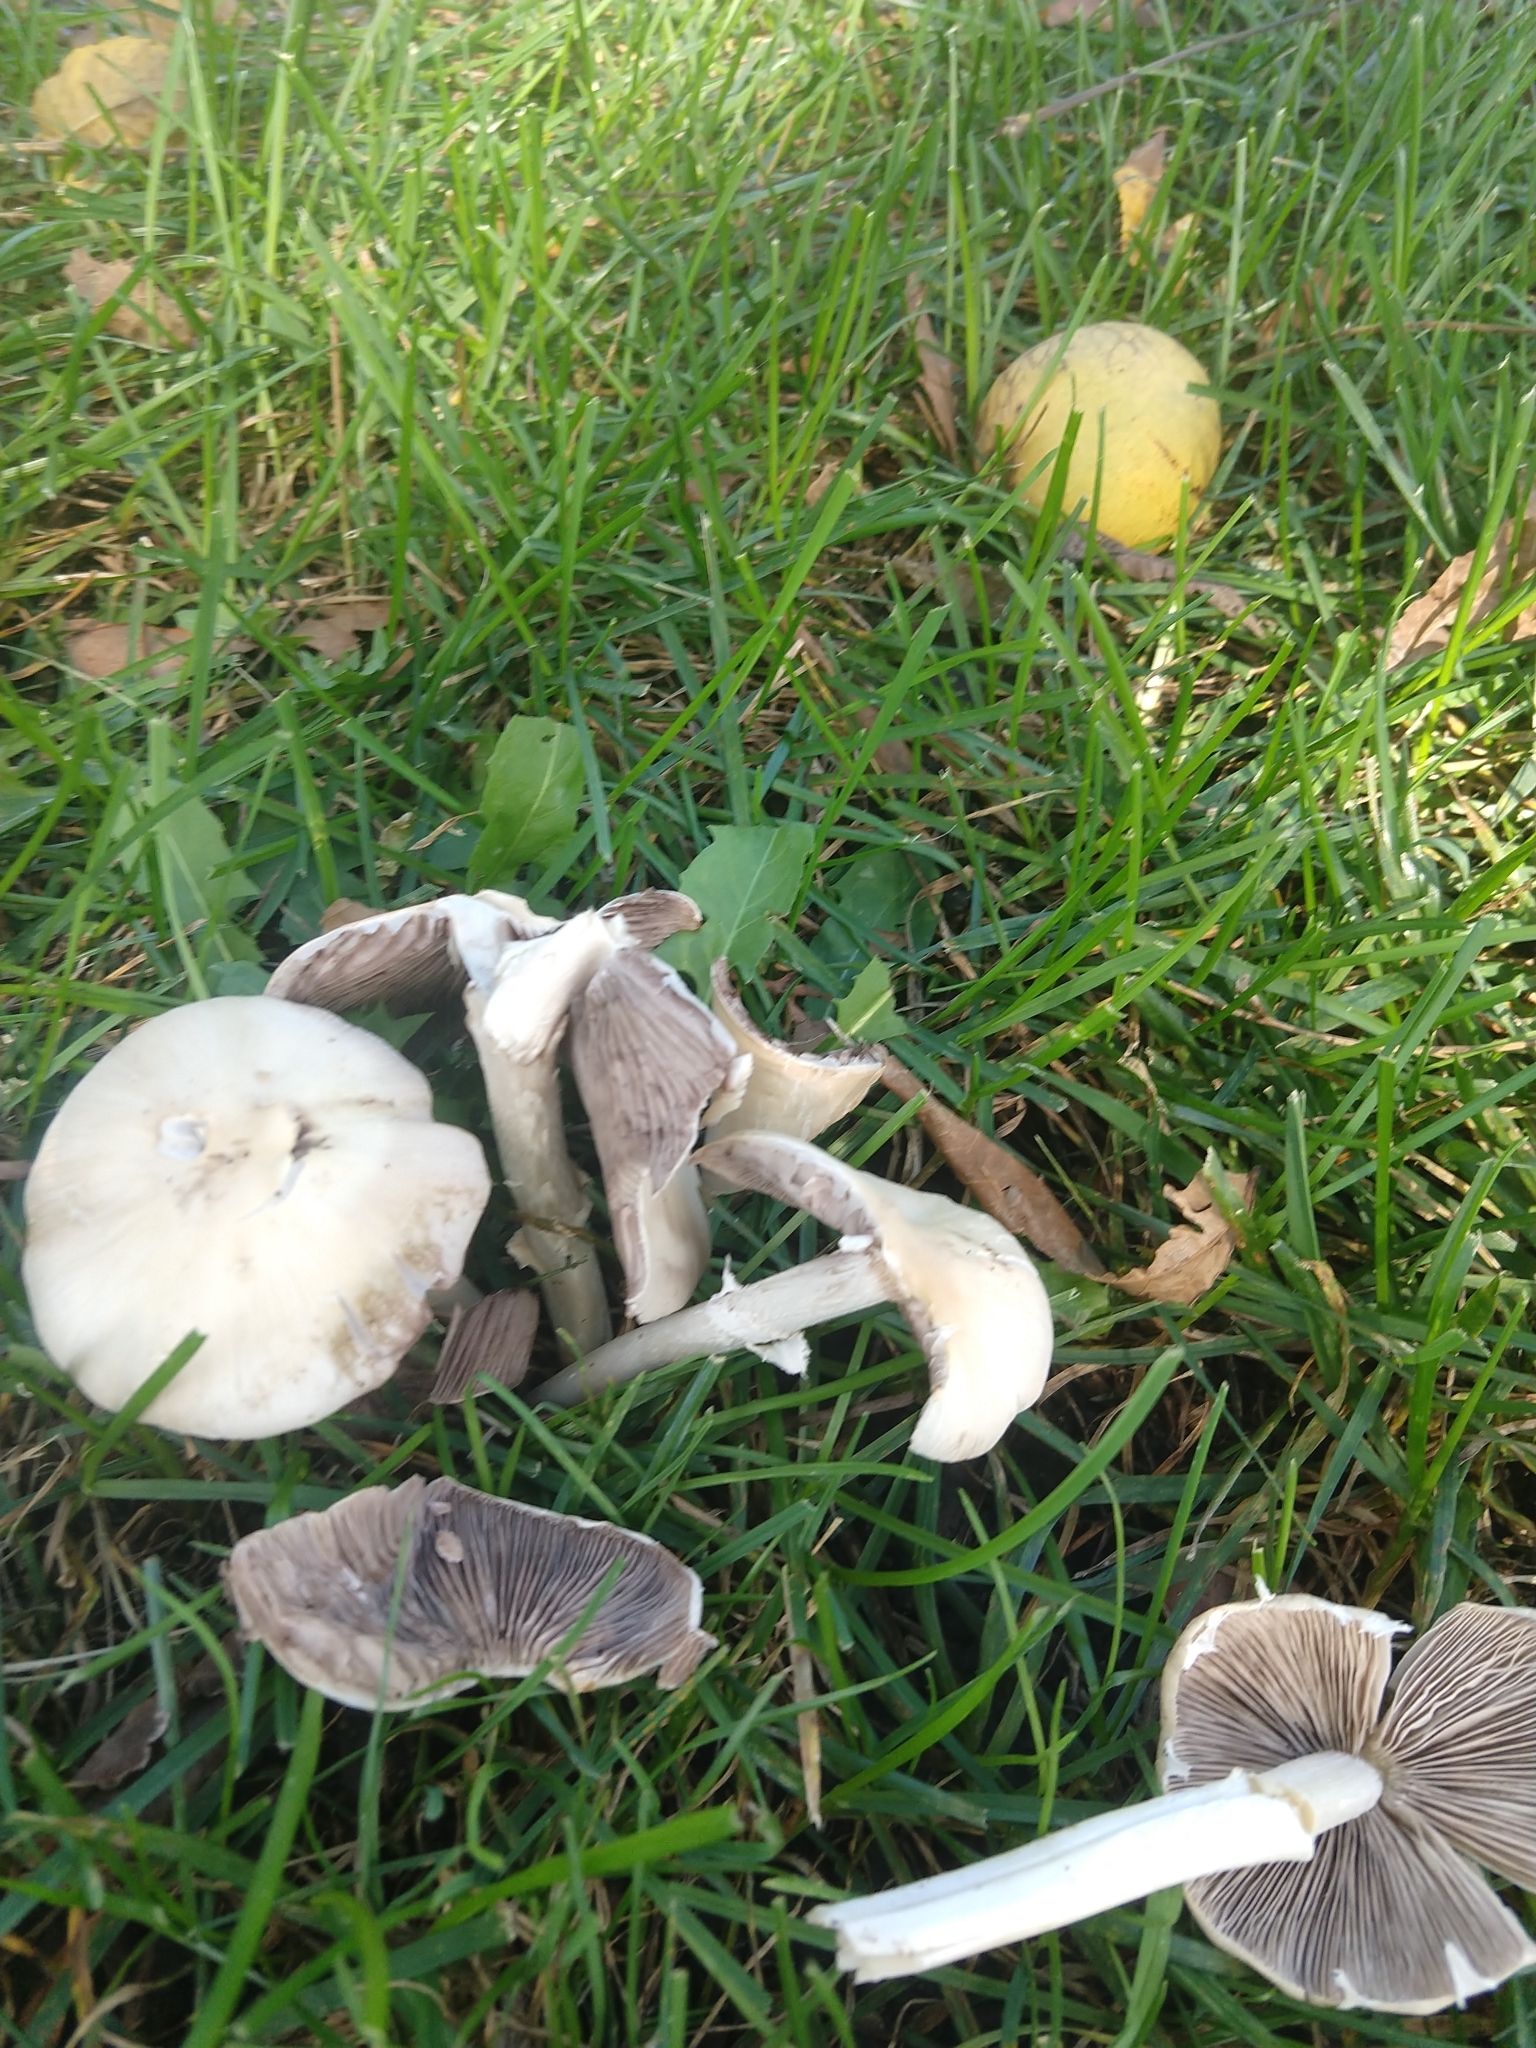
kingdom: Fungi
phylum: Basidiomycota
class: Agaricomycetes
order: Agaricales
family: Psathyrellaceae
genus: Candolleomyces
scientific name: Candolleomyces candolleanus
